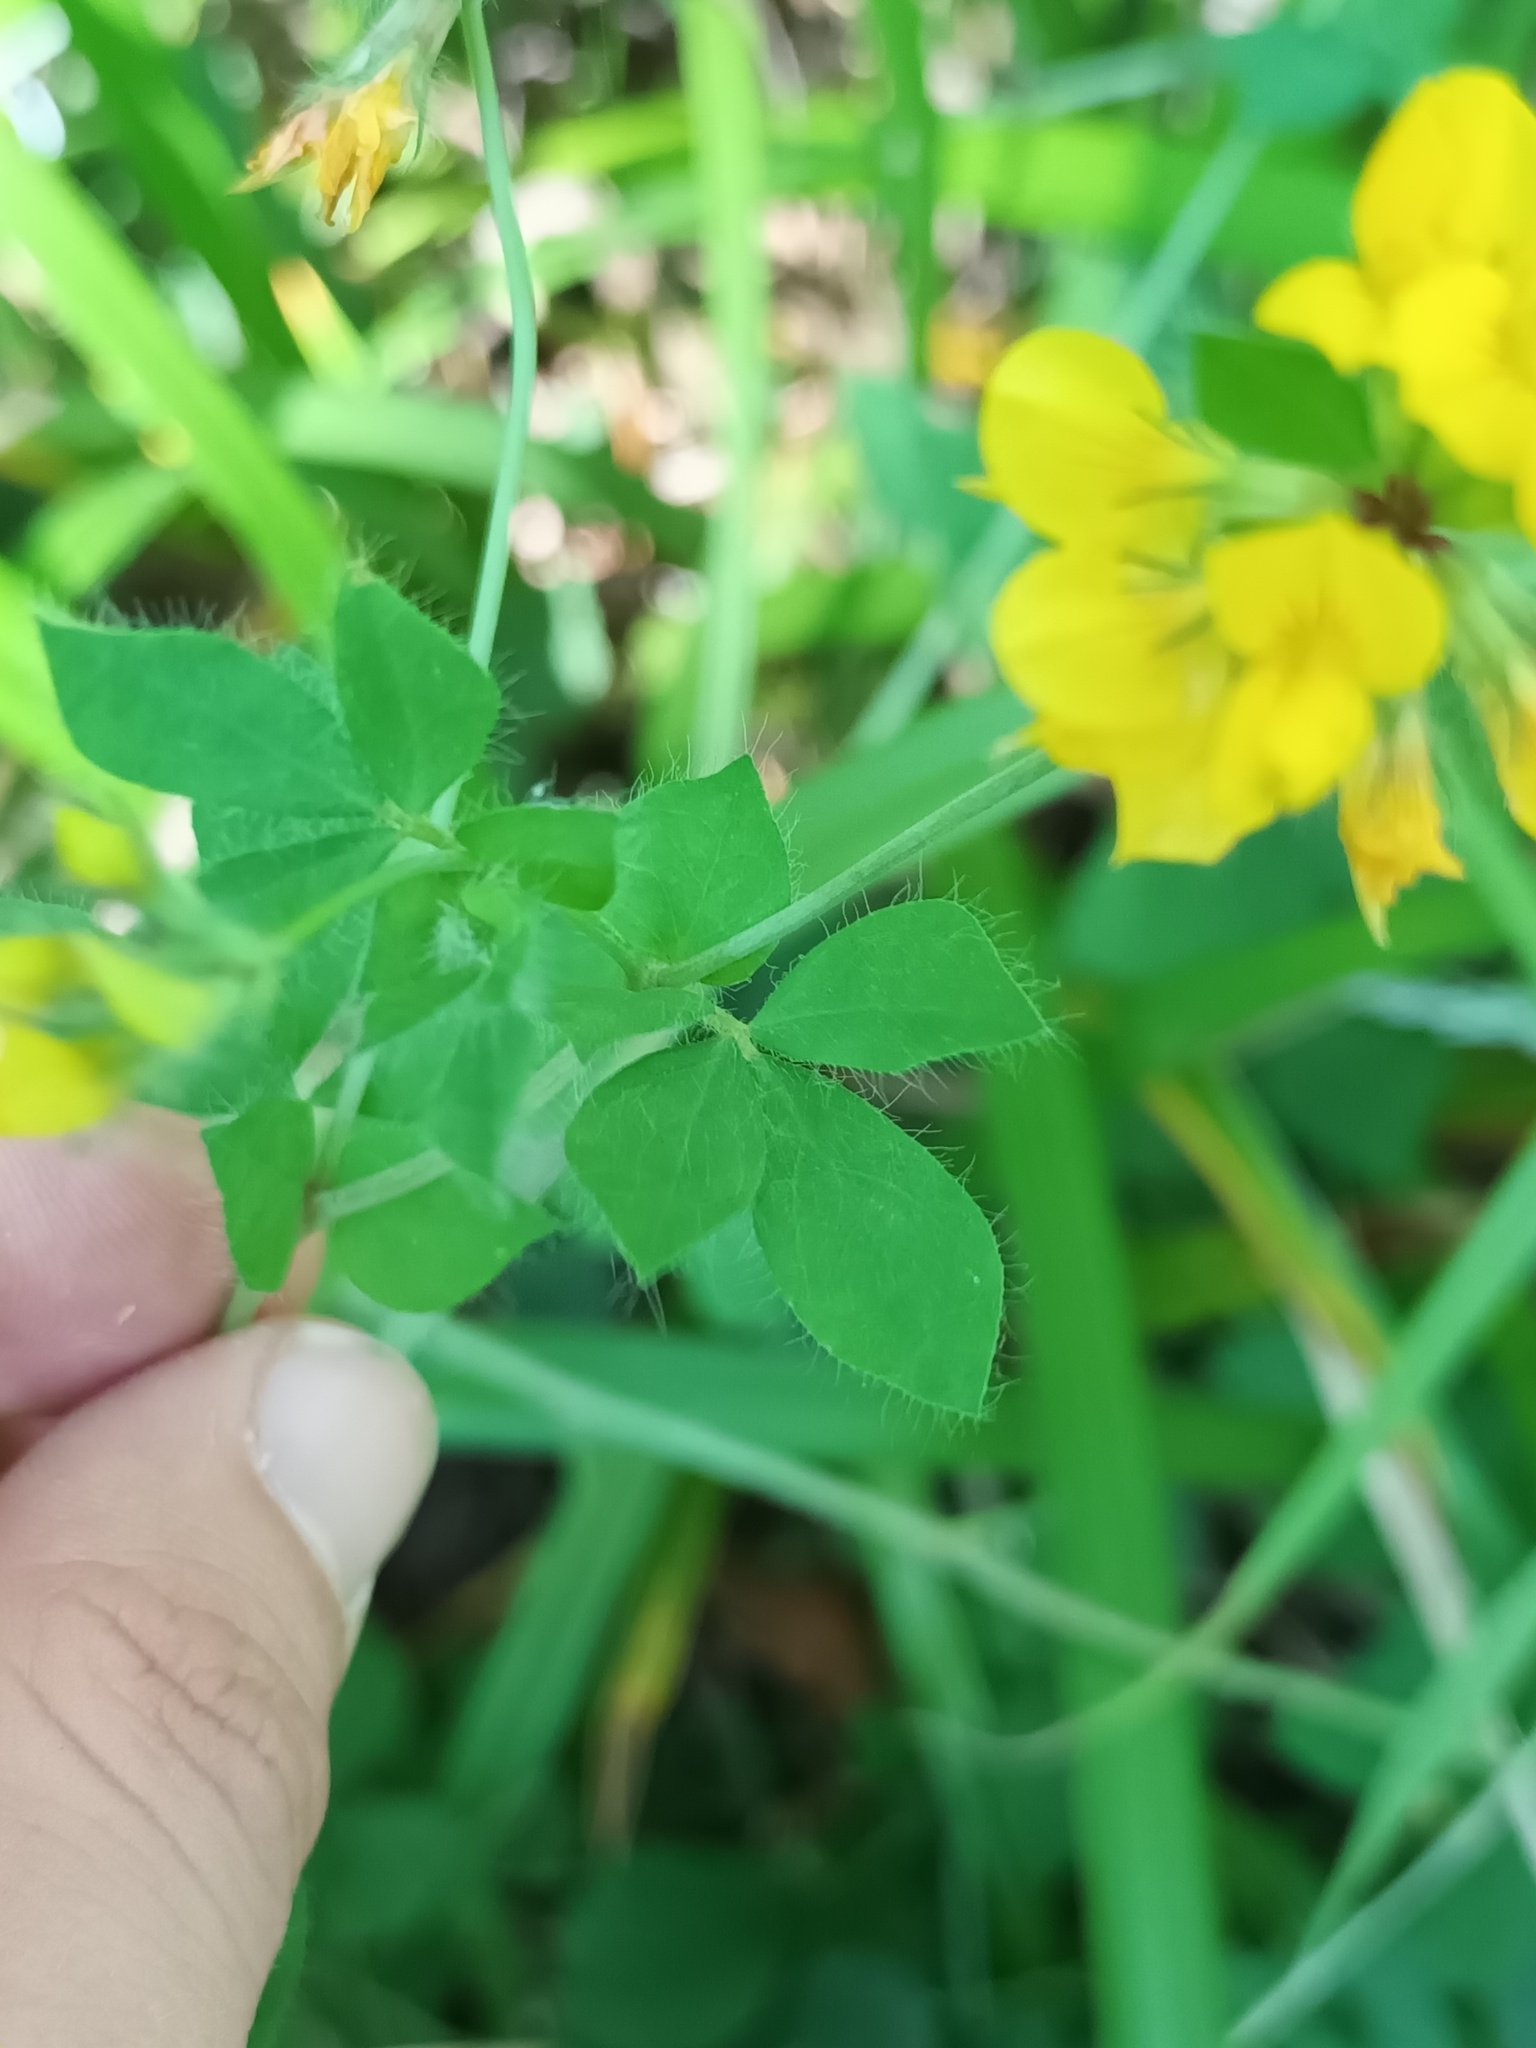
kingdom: Plantae
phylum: Tracheophyta
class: Magnoliopsida
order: Fabales
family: Fabaceae
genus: Lotus
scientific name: Lotus pedunculatus
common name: Greater birdsfoot-trefoil
